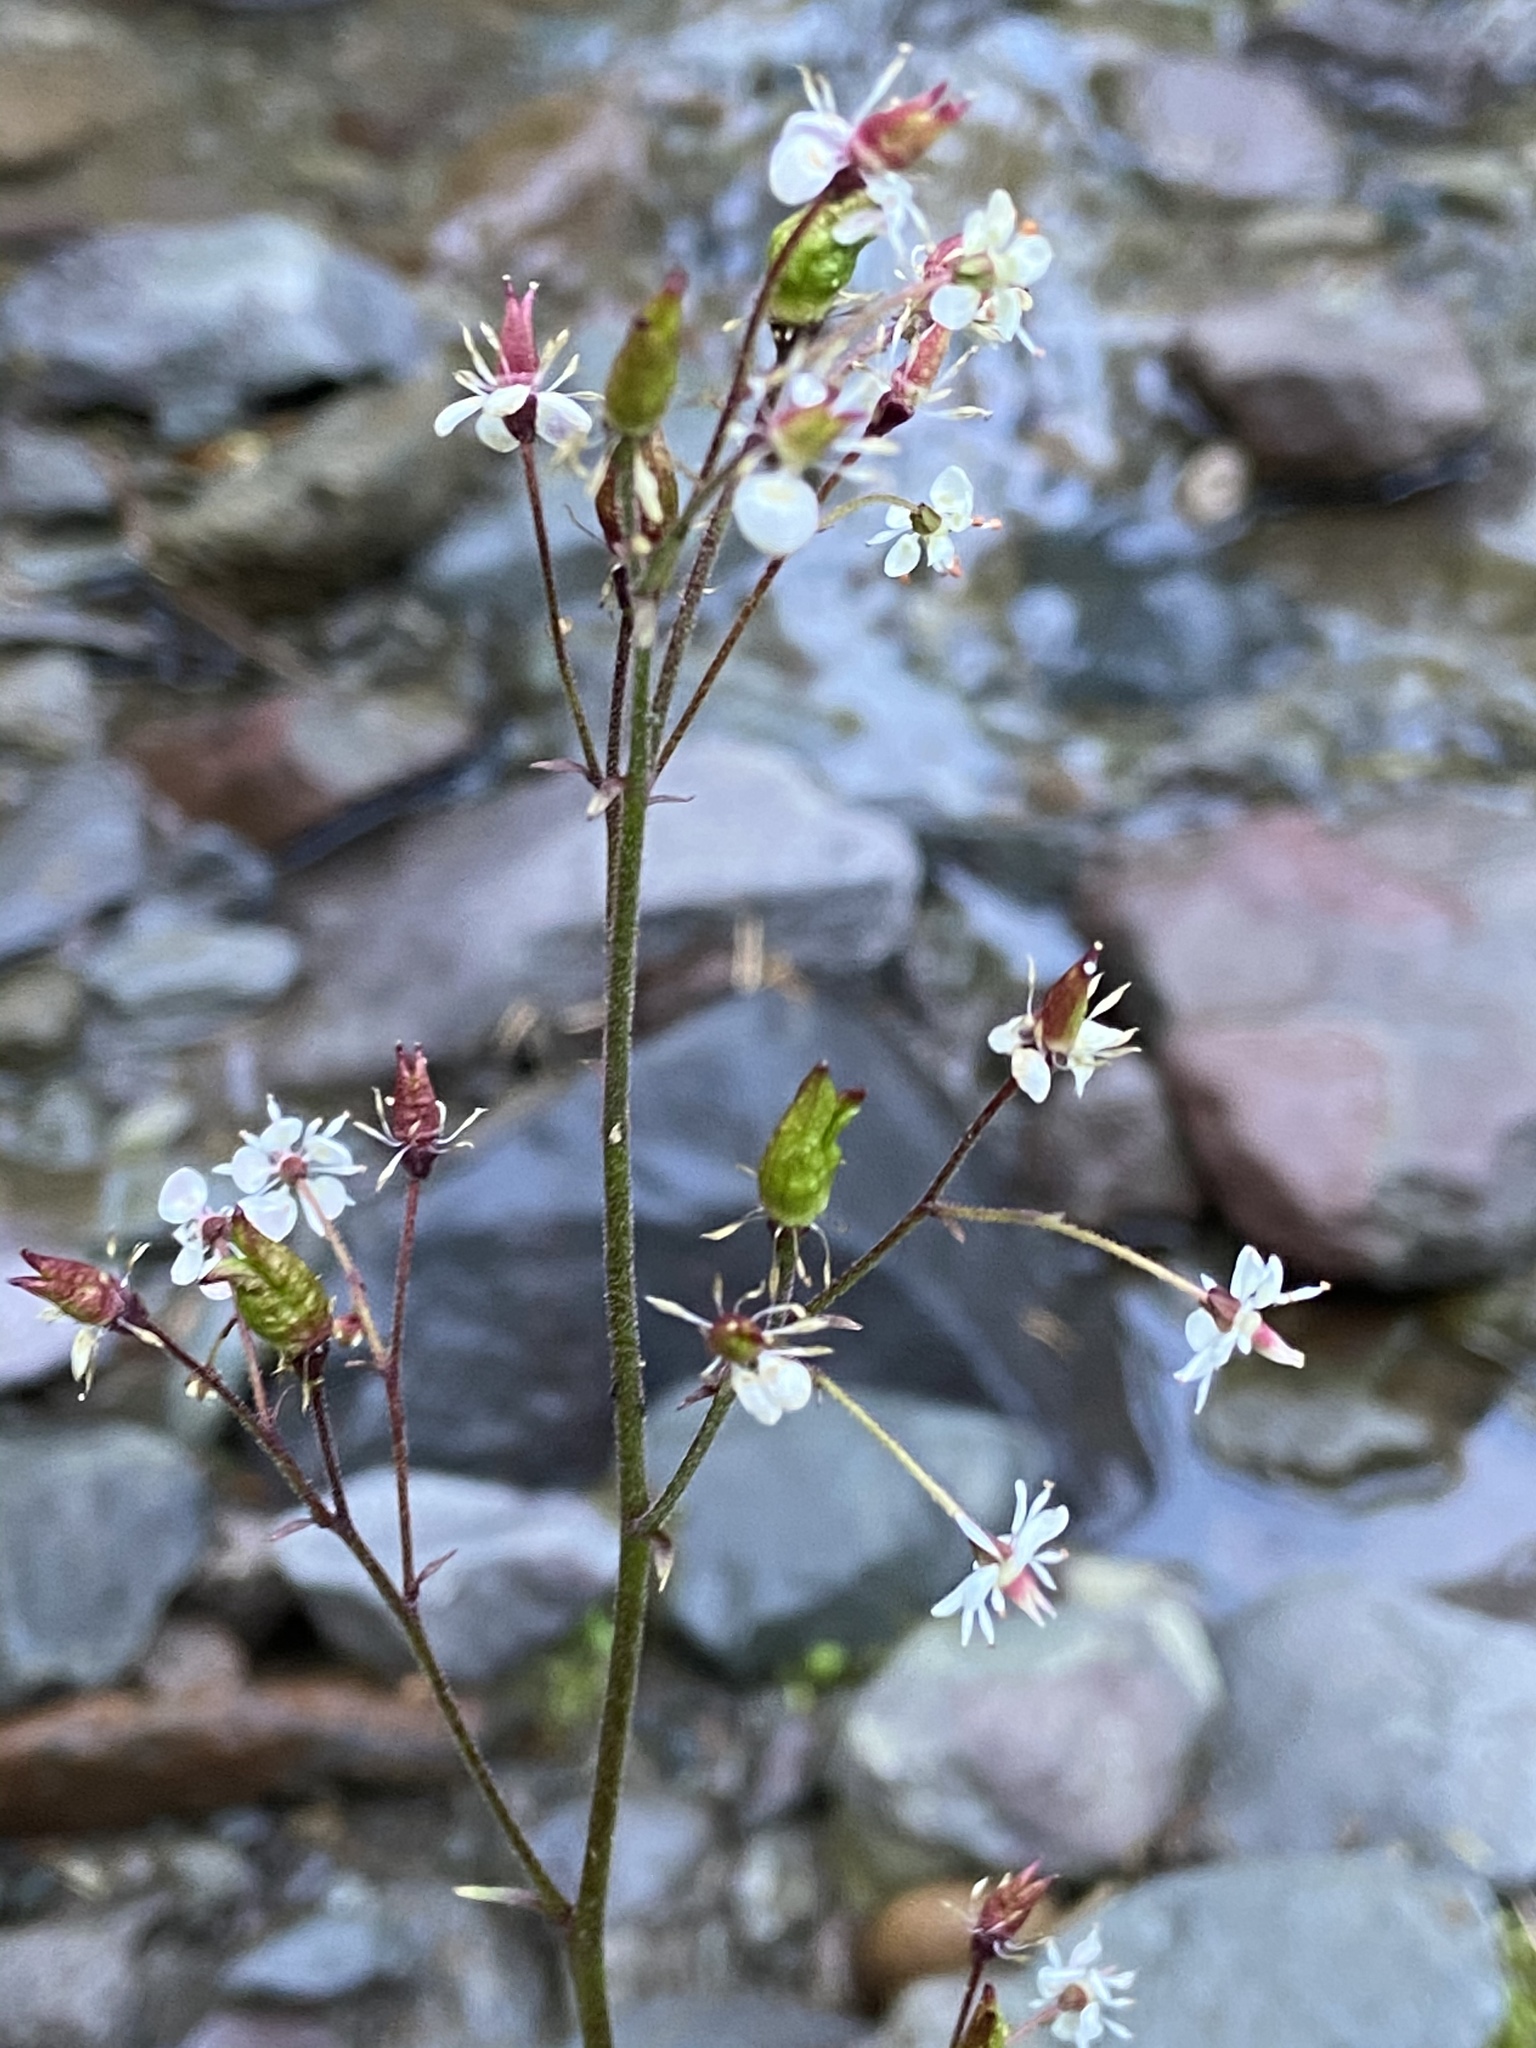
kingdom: Plantae
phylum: Tracheophyta
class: Magnoliopsida
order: Saxifragales
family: Saxifragaceae
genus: Micranthes
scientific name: Micranthes odontoloma
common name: Brook saxifrage
